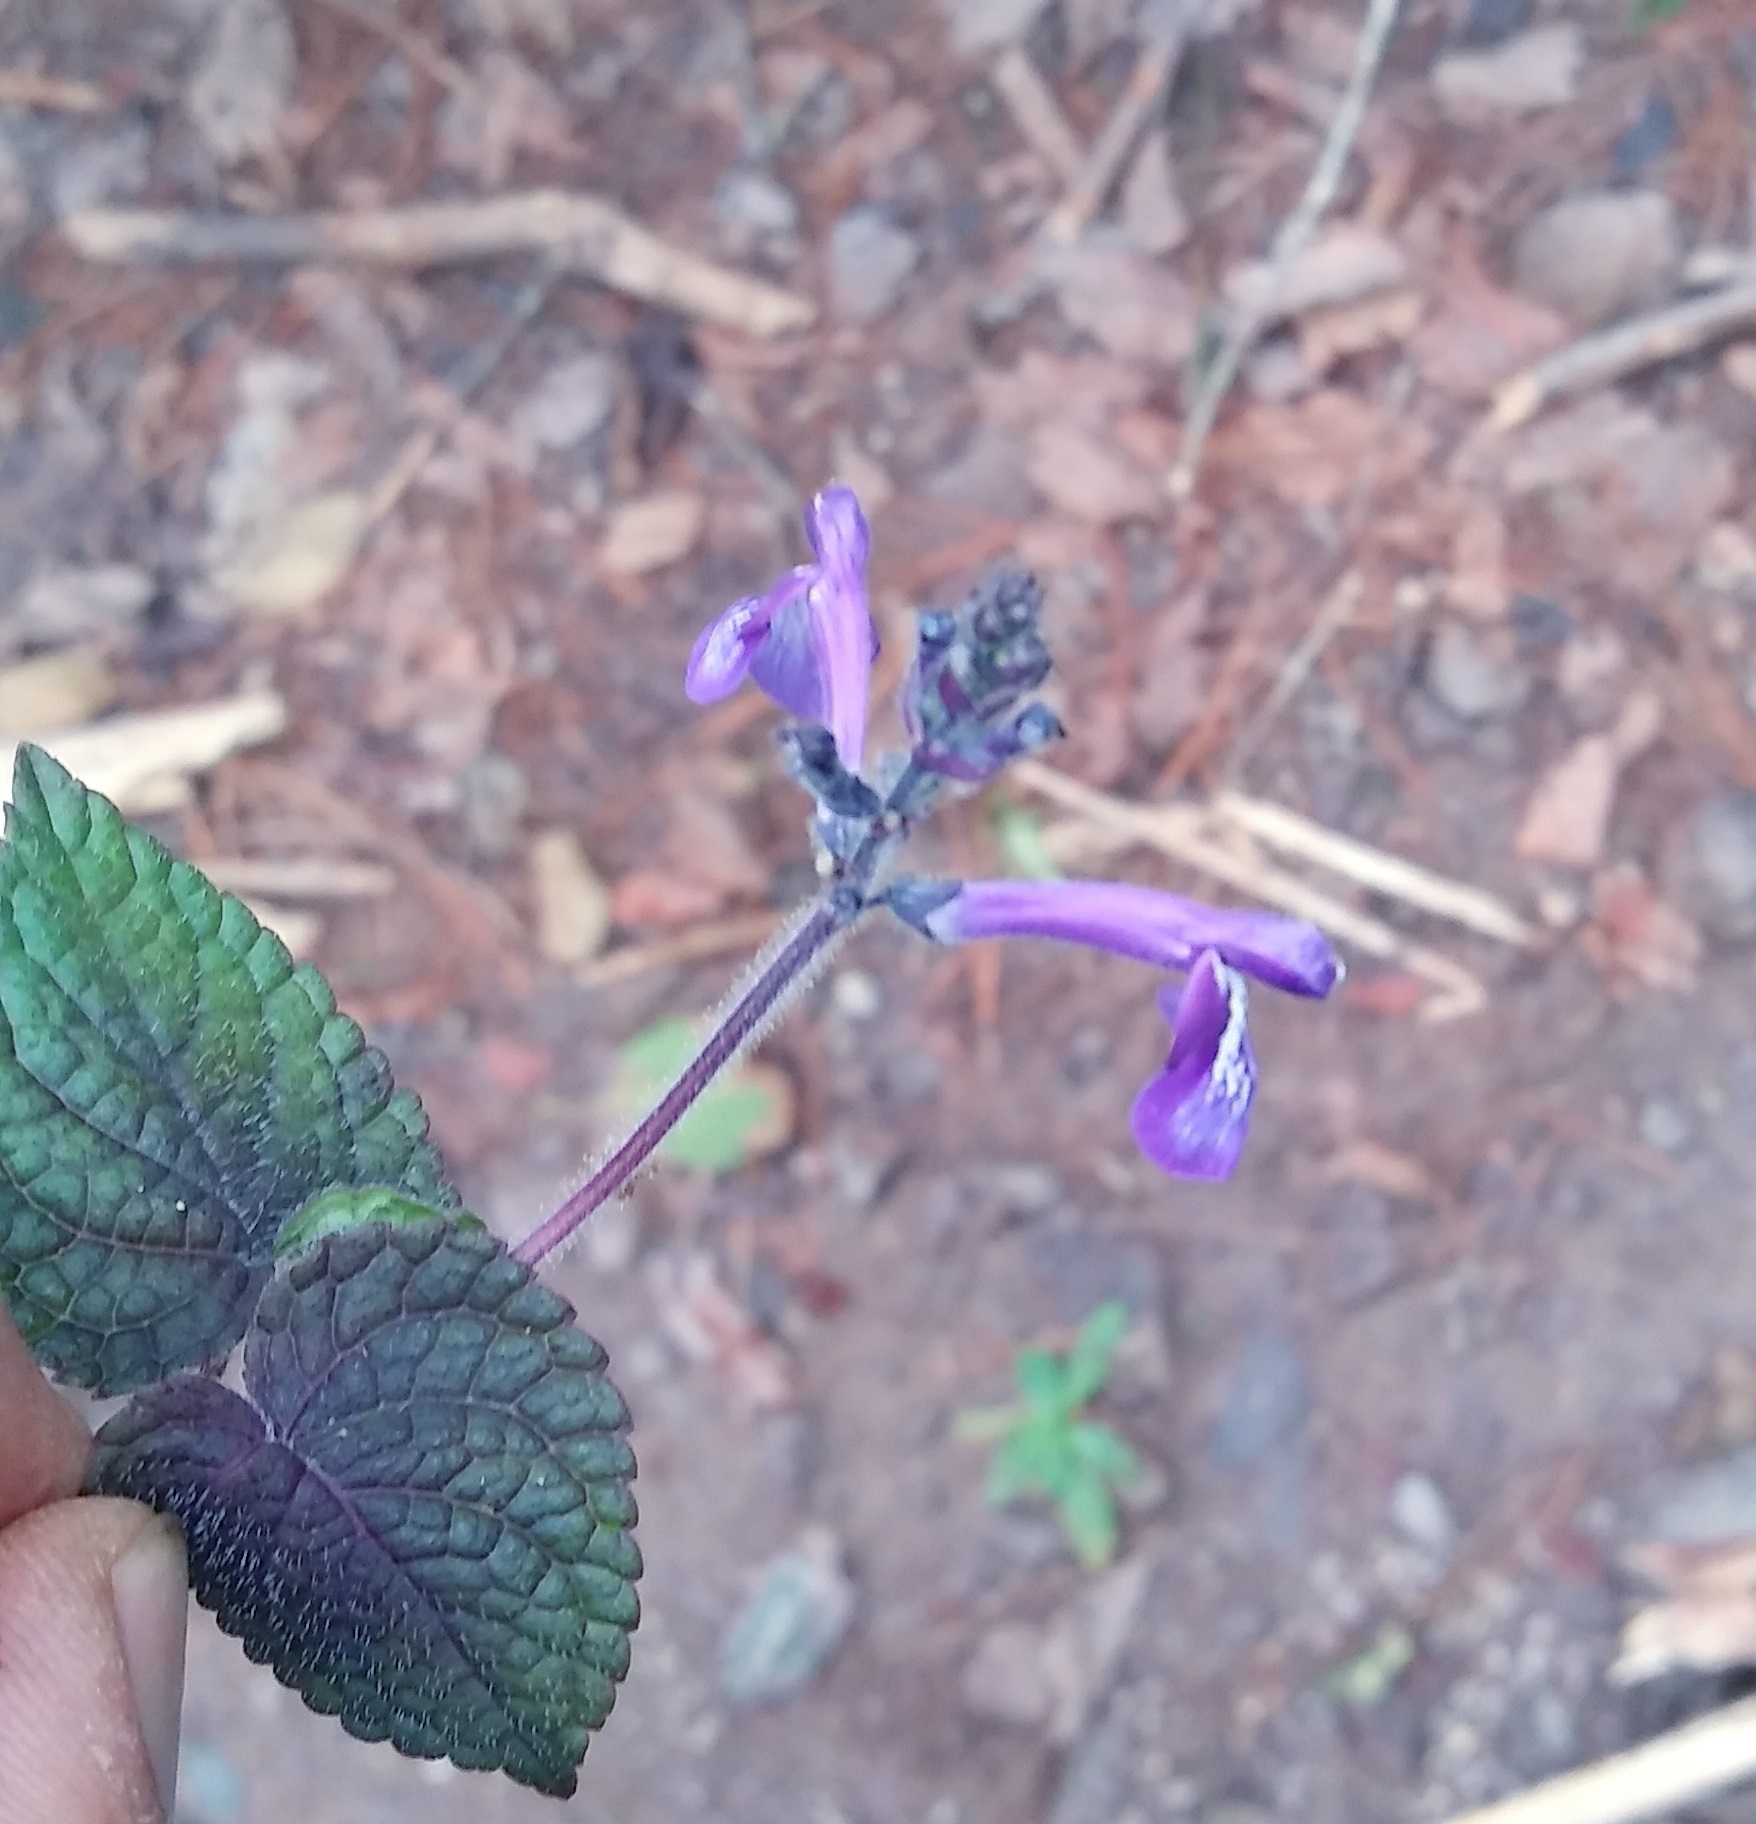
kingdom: Plantae
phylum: Tracheophyta
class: Magnoliopsida
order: Lamiales
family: Lamiaceae
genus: Salvia
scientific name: Salvia hamulus
